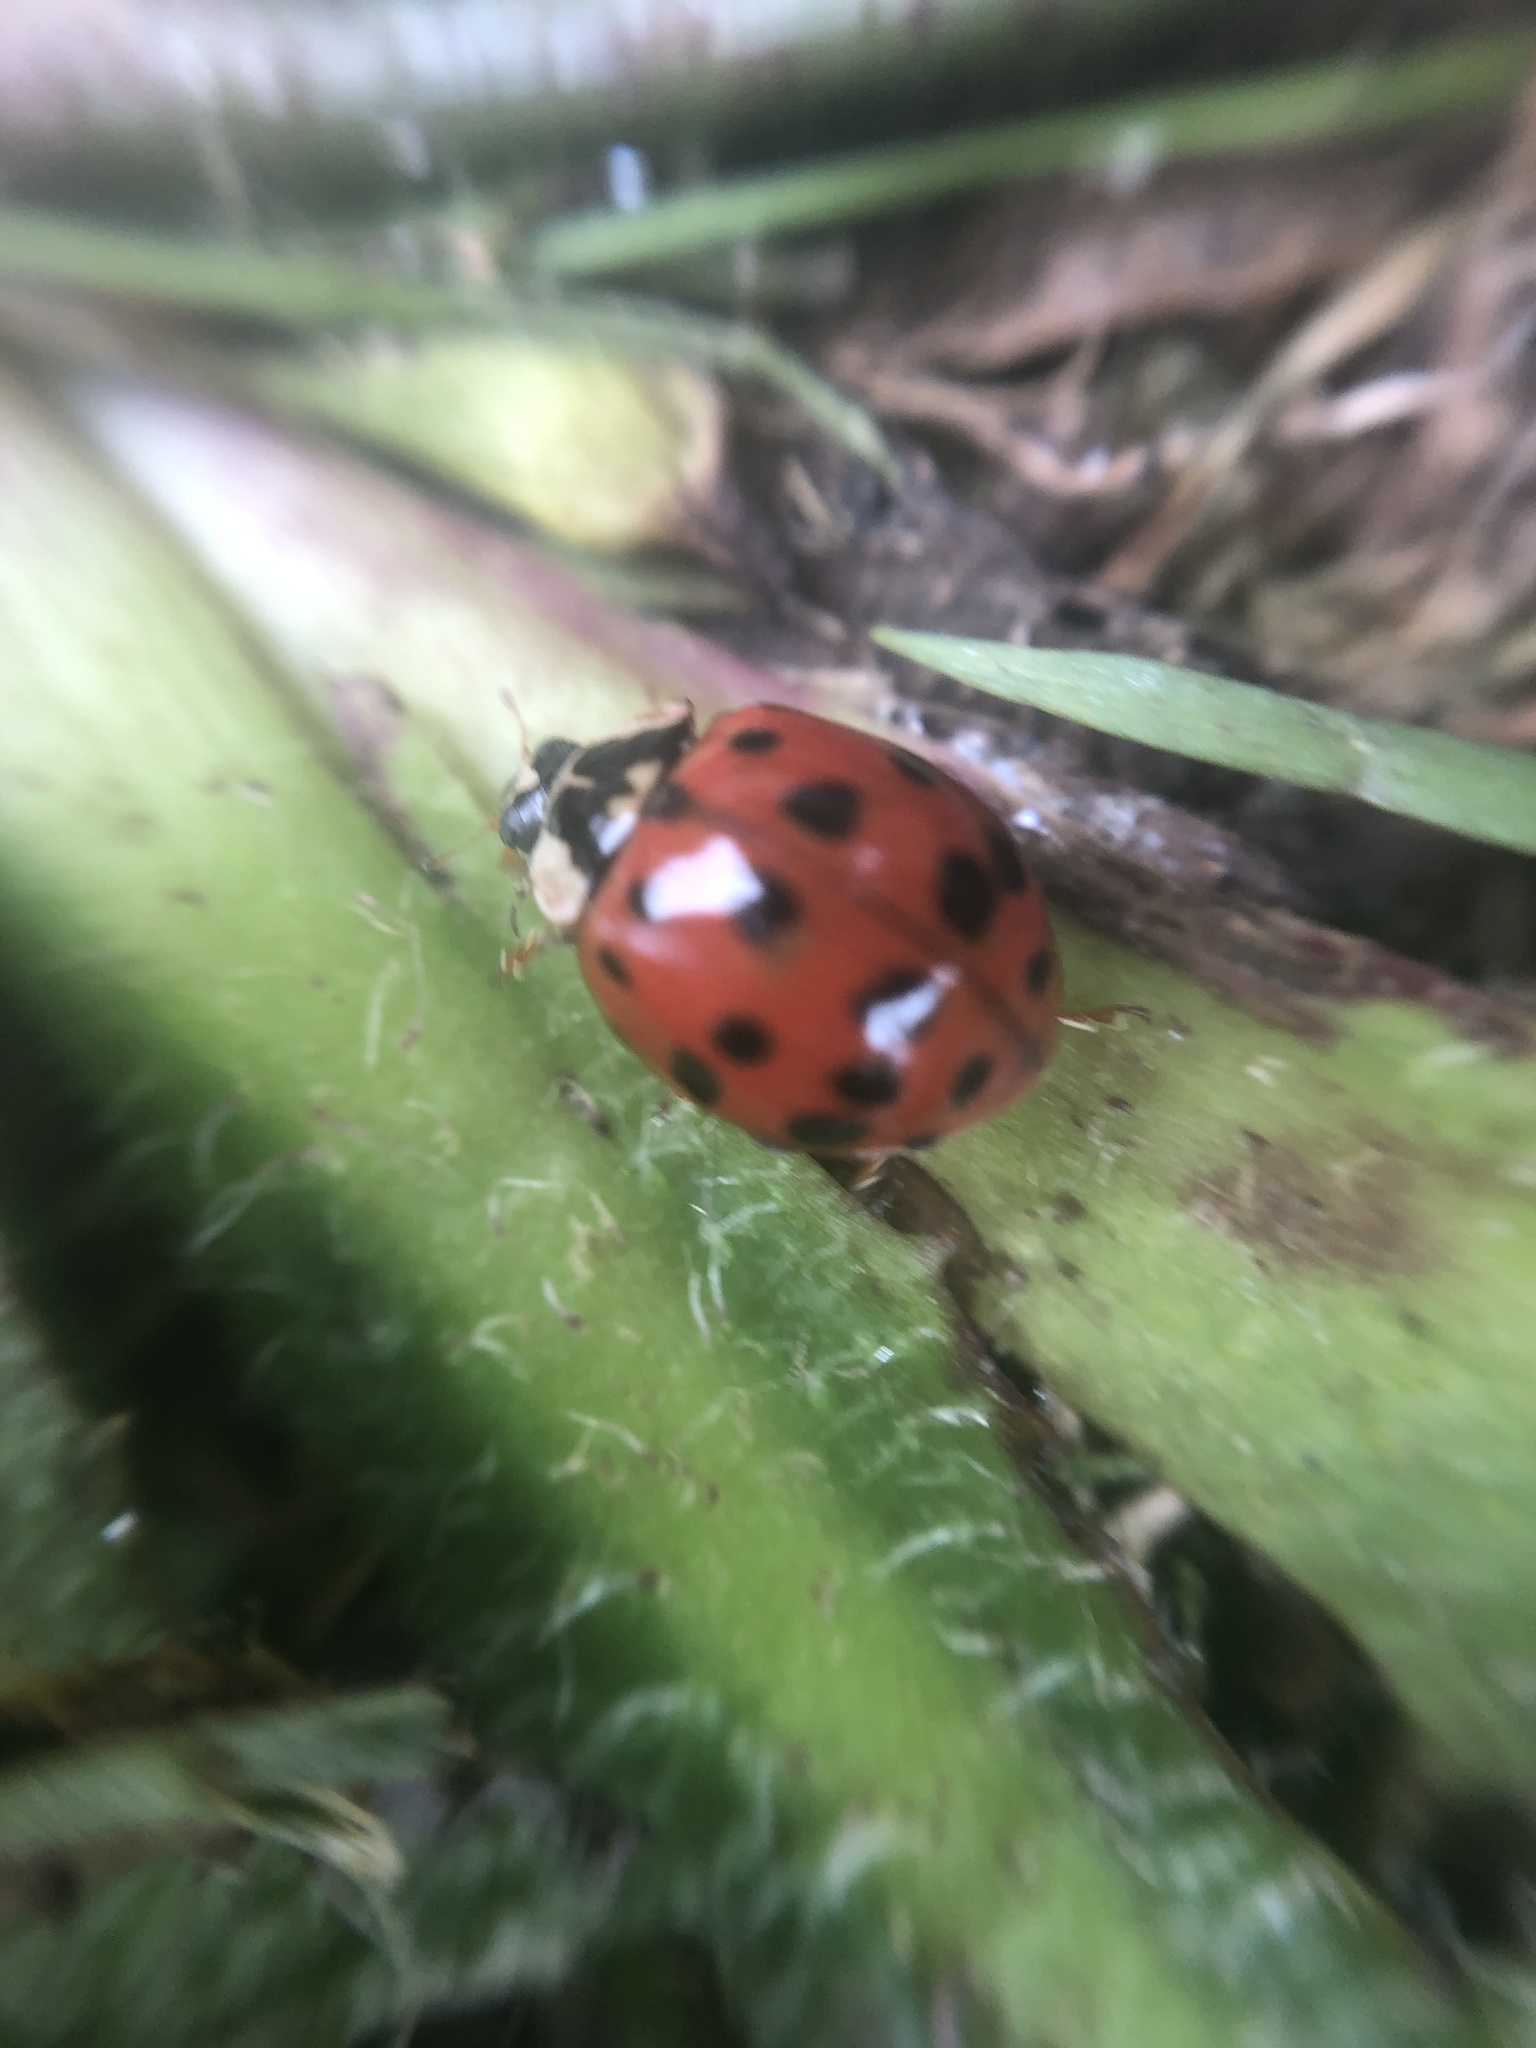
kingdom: Animalia
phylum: Arthropoda
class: Insecta
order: Coleoptera
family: Coccinellidae
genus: Harmonia
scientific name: Harmonia axyridis
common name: Harlequin ladybird
